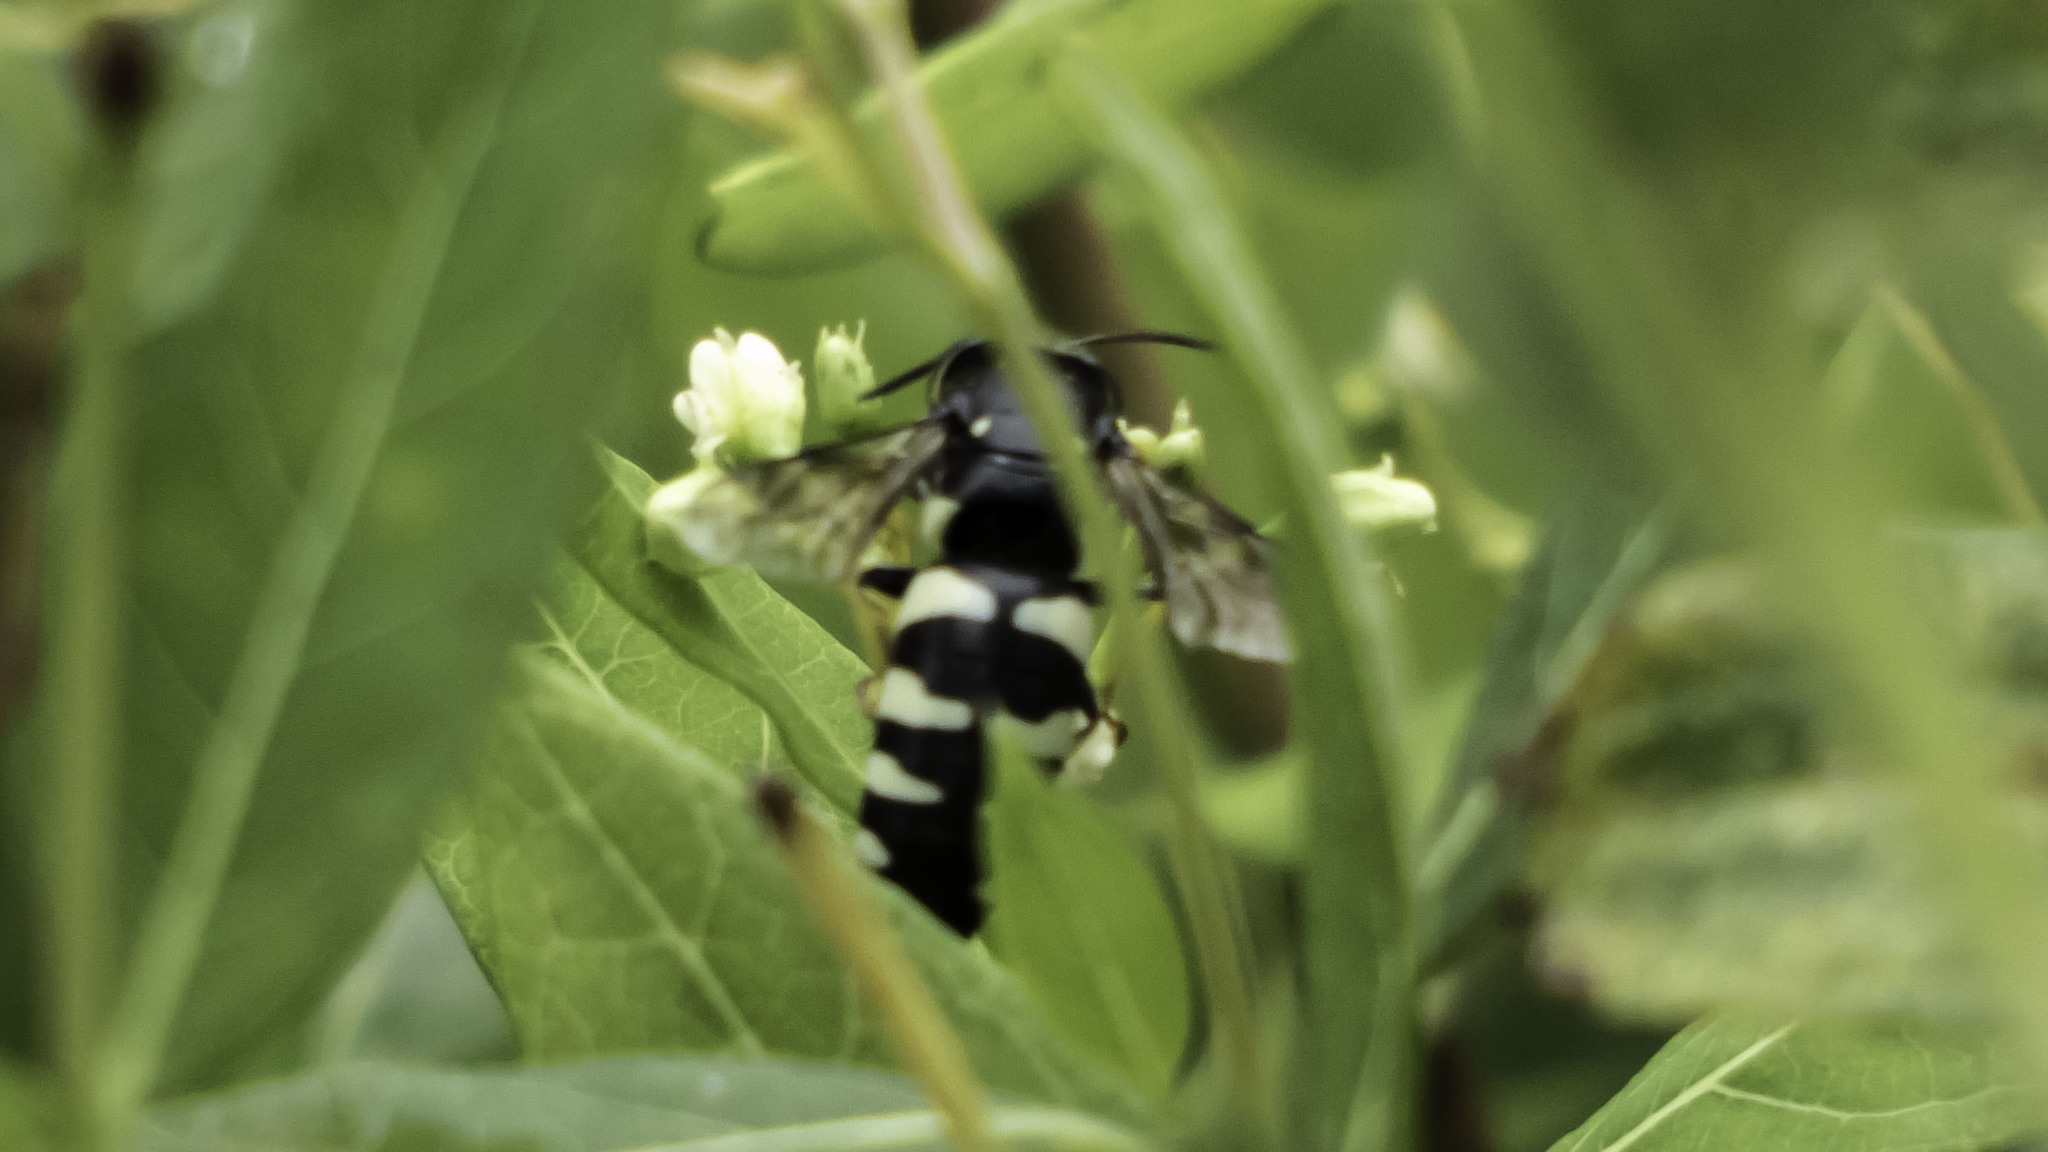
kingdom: Animalia
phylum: Arthropoda
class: Insecta
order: Hymenoptera
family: Crabronidae
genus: Bicyrtes
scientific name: Bicyrtes quadrifasciatus
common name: Four-banded stink bug hunter wasp
